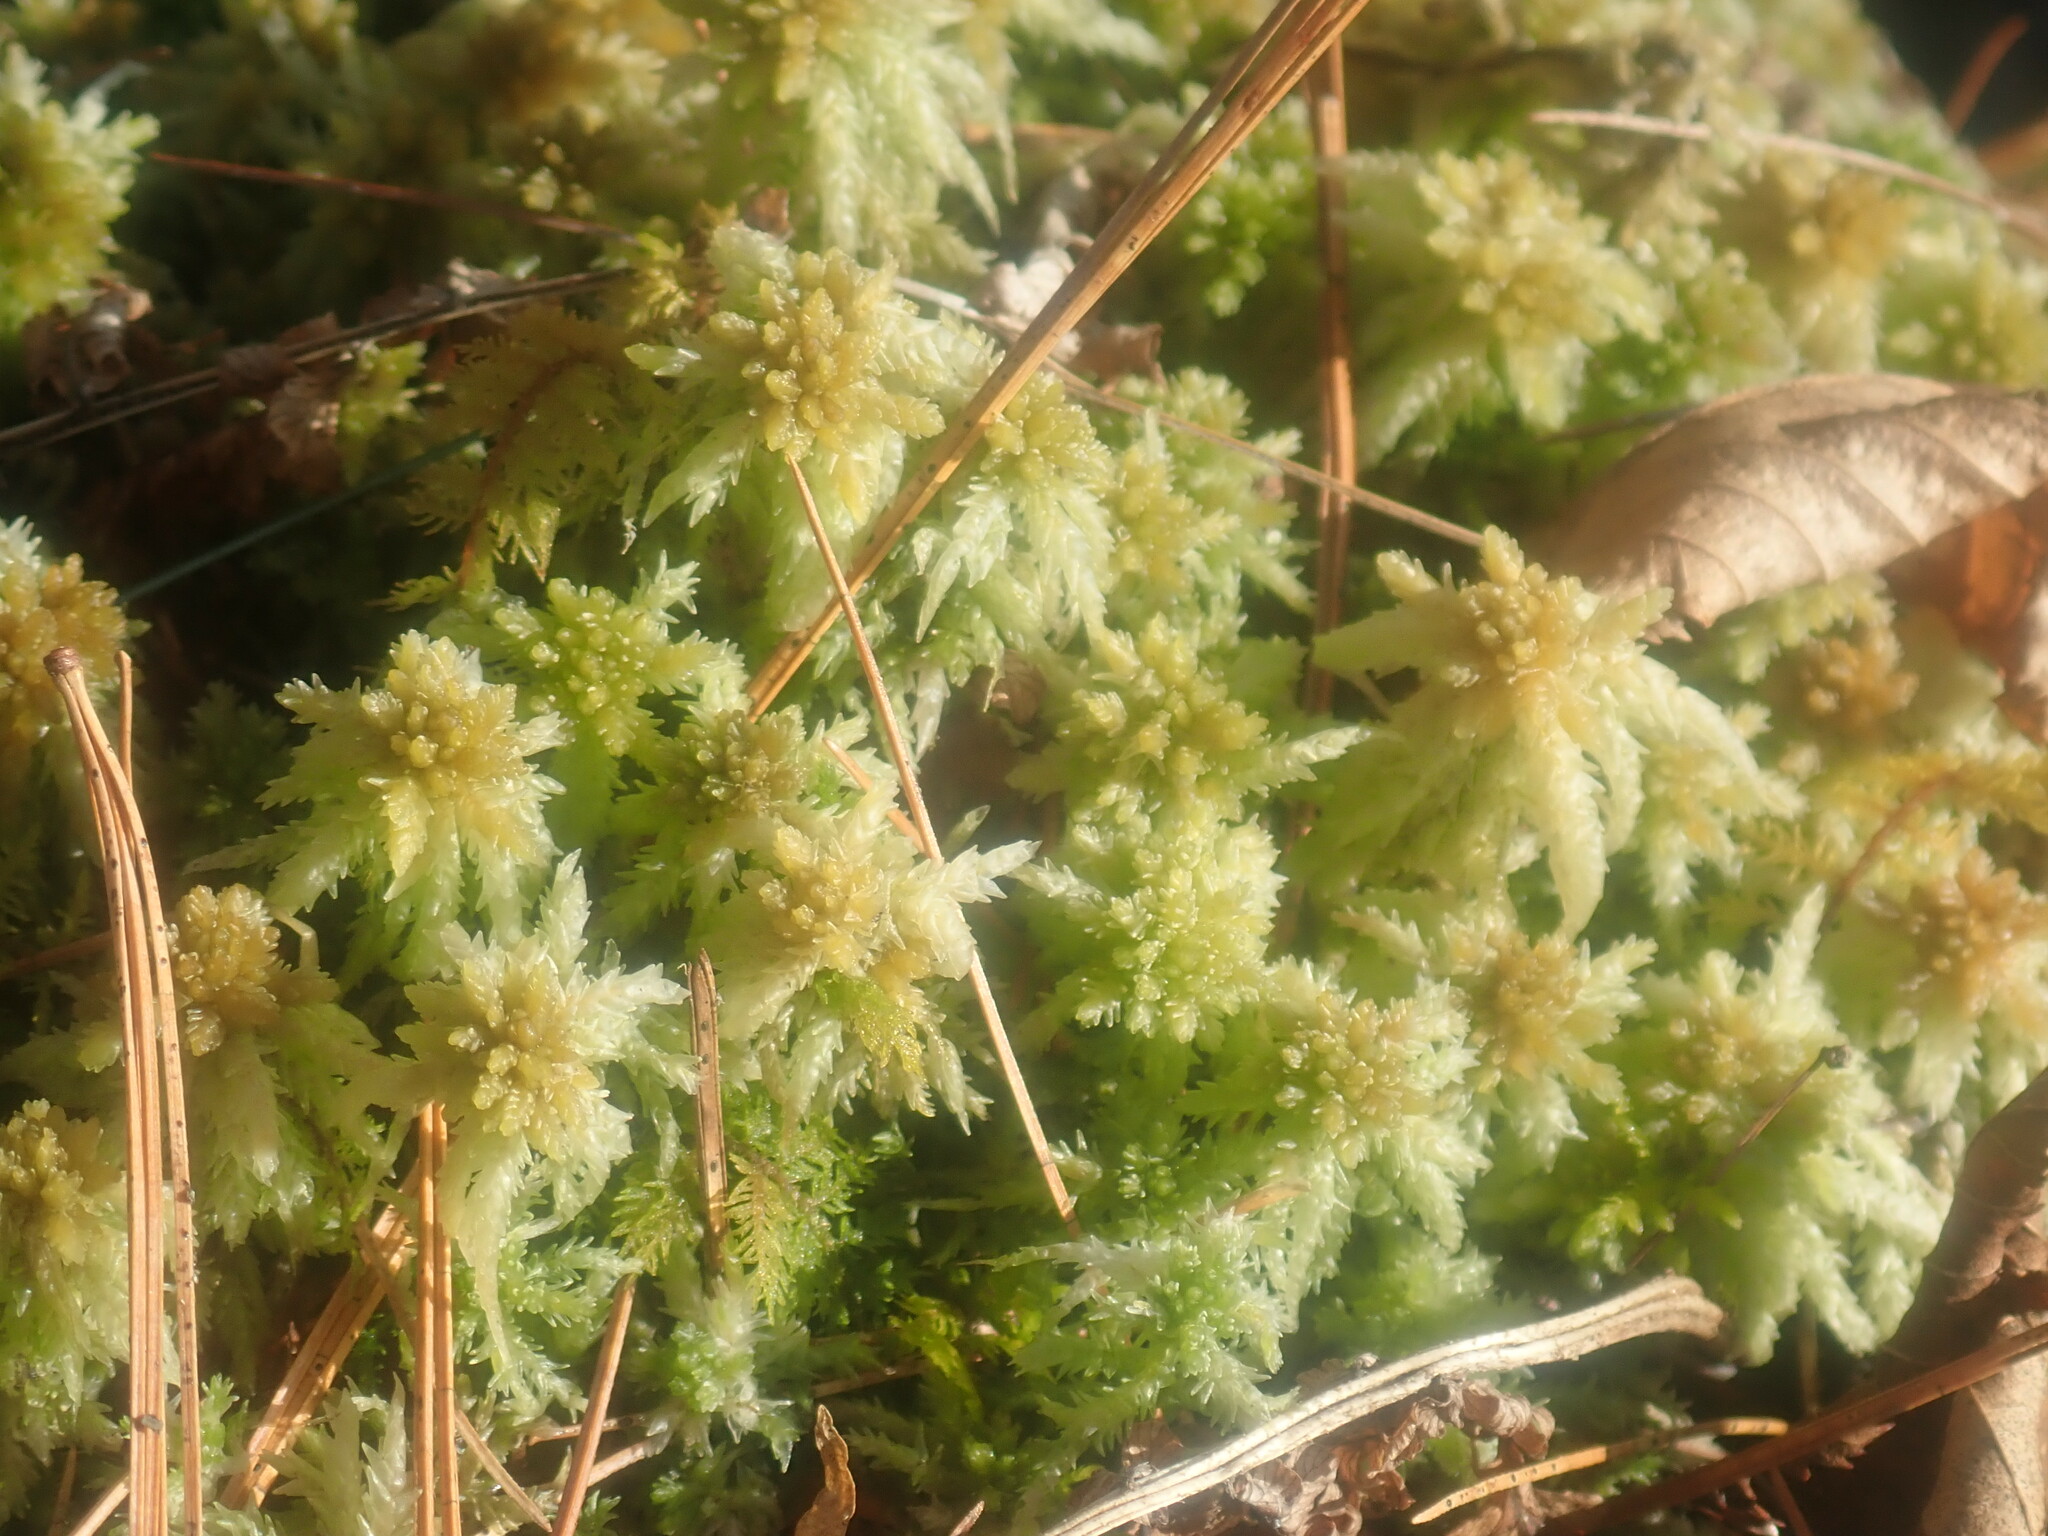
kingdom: Plantae
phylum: Bryophyta
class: Sphagnopsida
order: Sphagnales
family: Sphagnaceae
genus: Sphagnum
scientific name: Sphagnum
